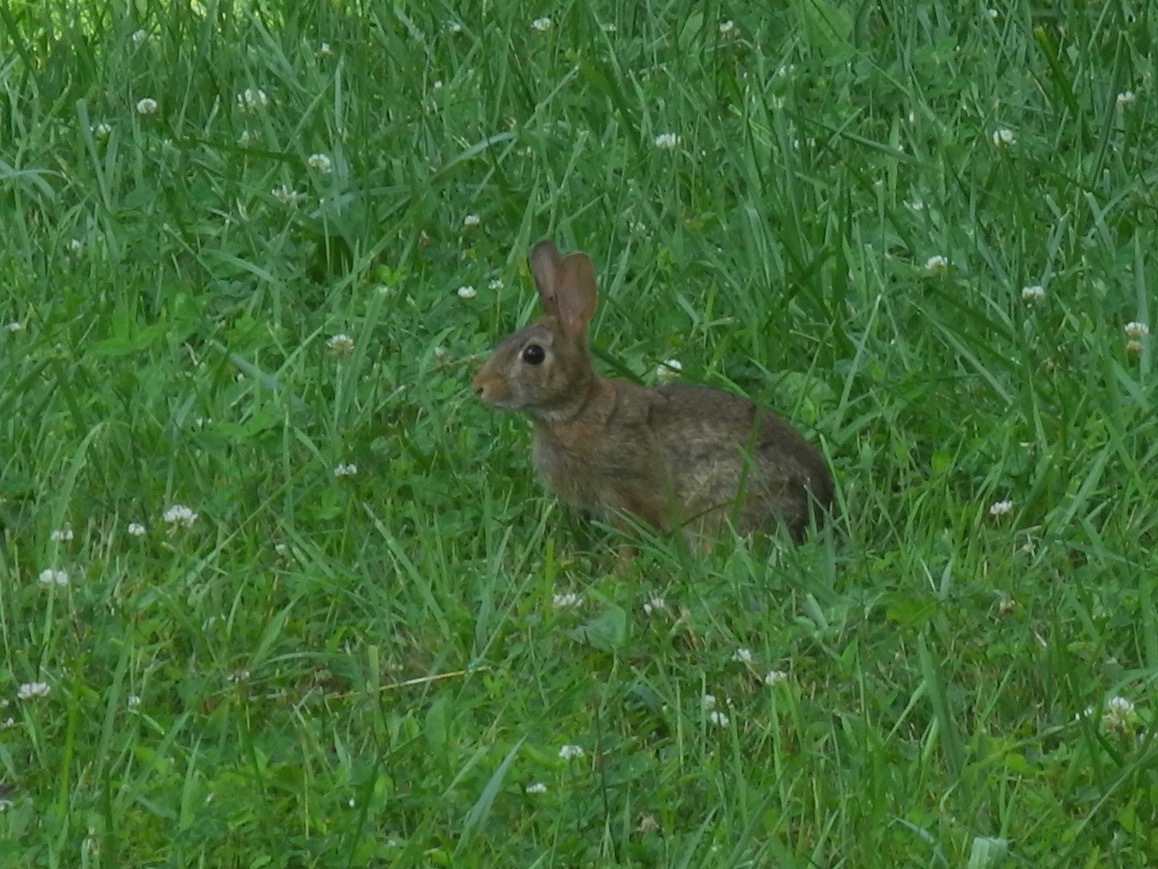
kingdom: Animalia
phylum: Chordata
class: Mammalia
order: Lagomorpha
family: Leporidae
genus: Sylvilagus
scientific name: Sylvilagus floridanus
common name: Eastern cottontail
